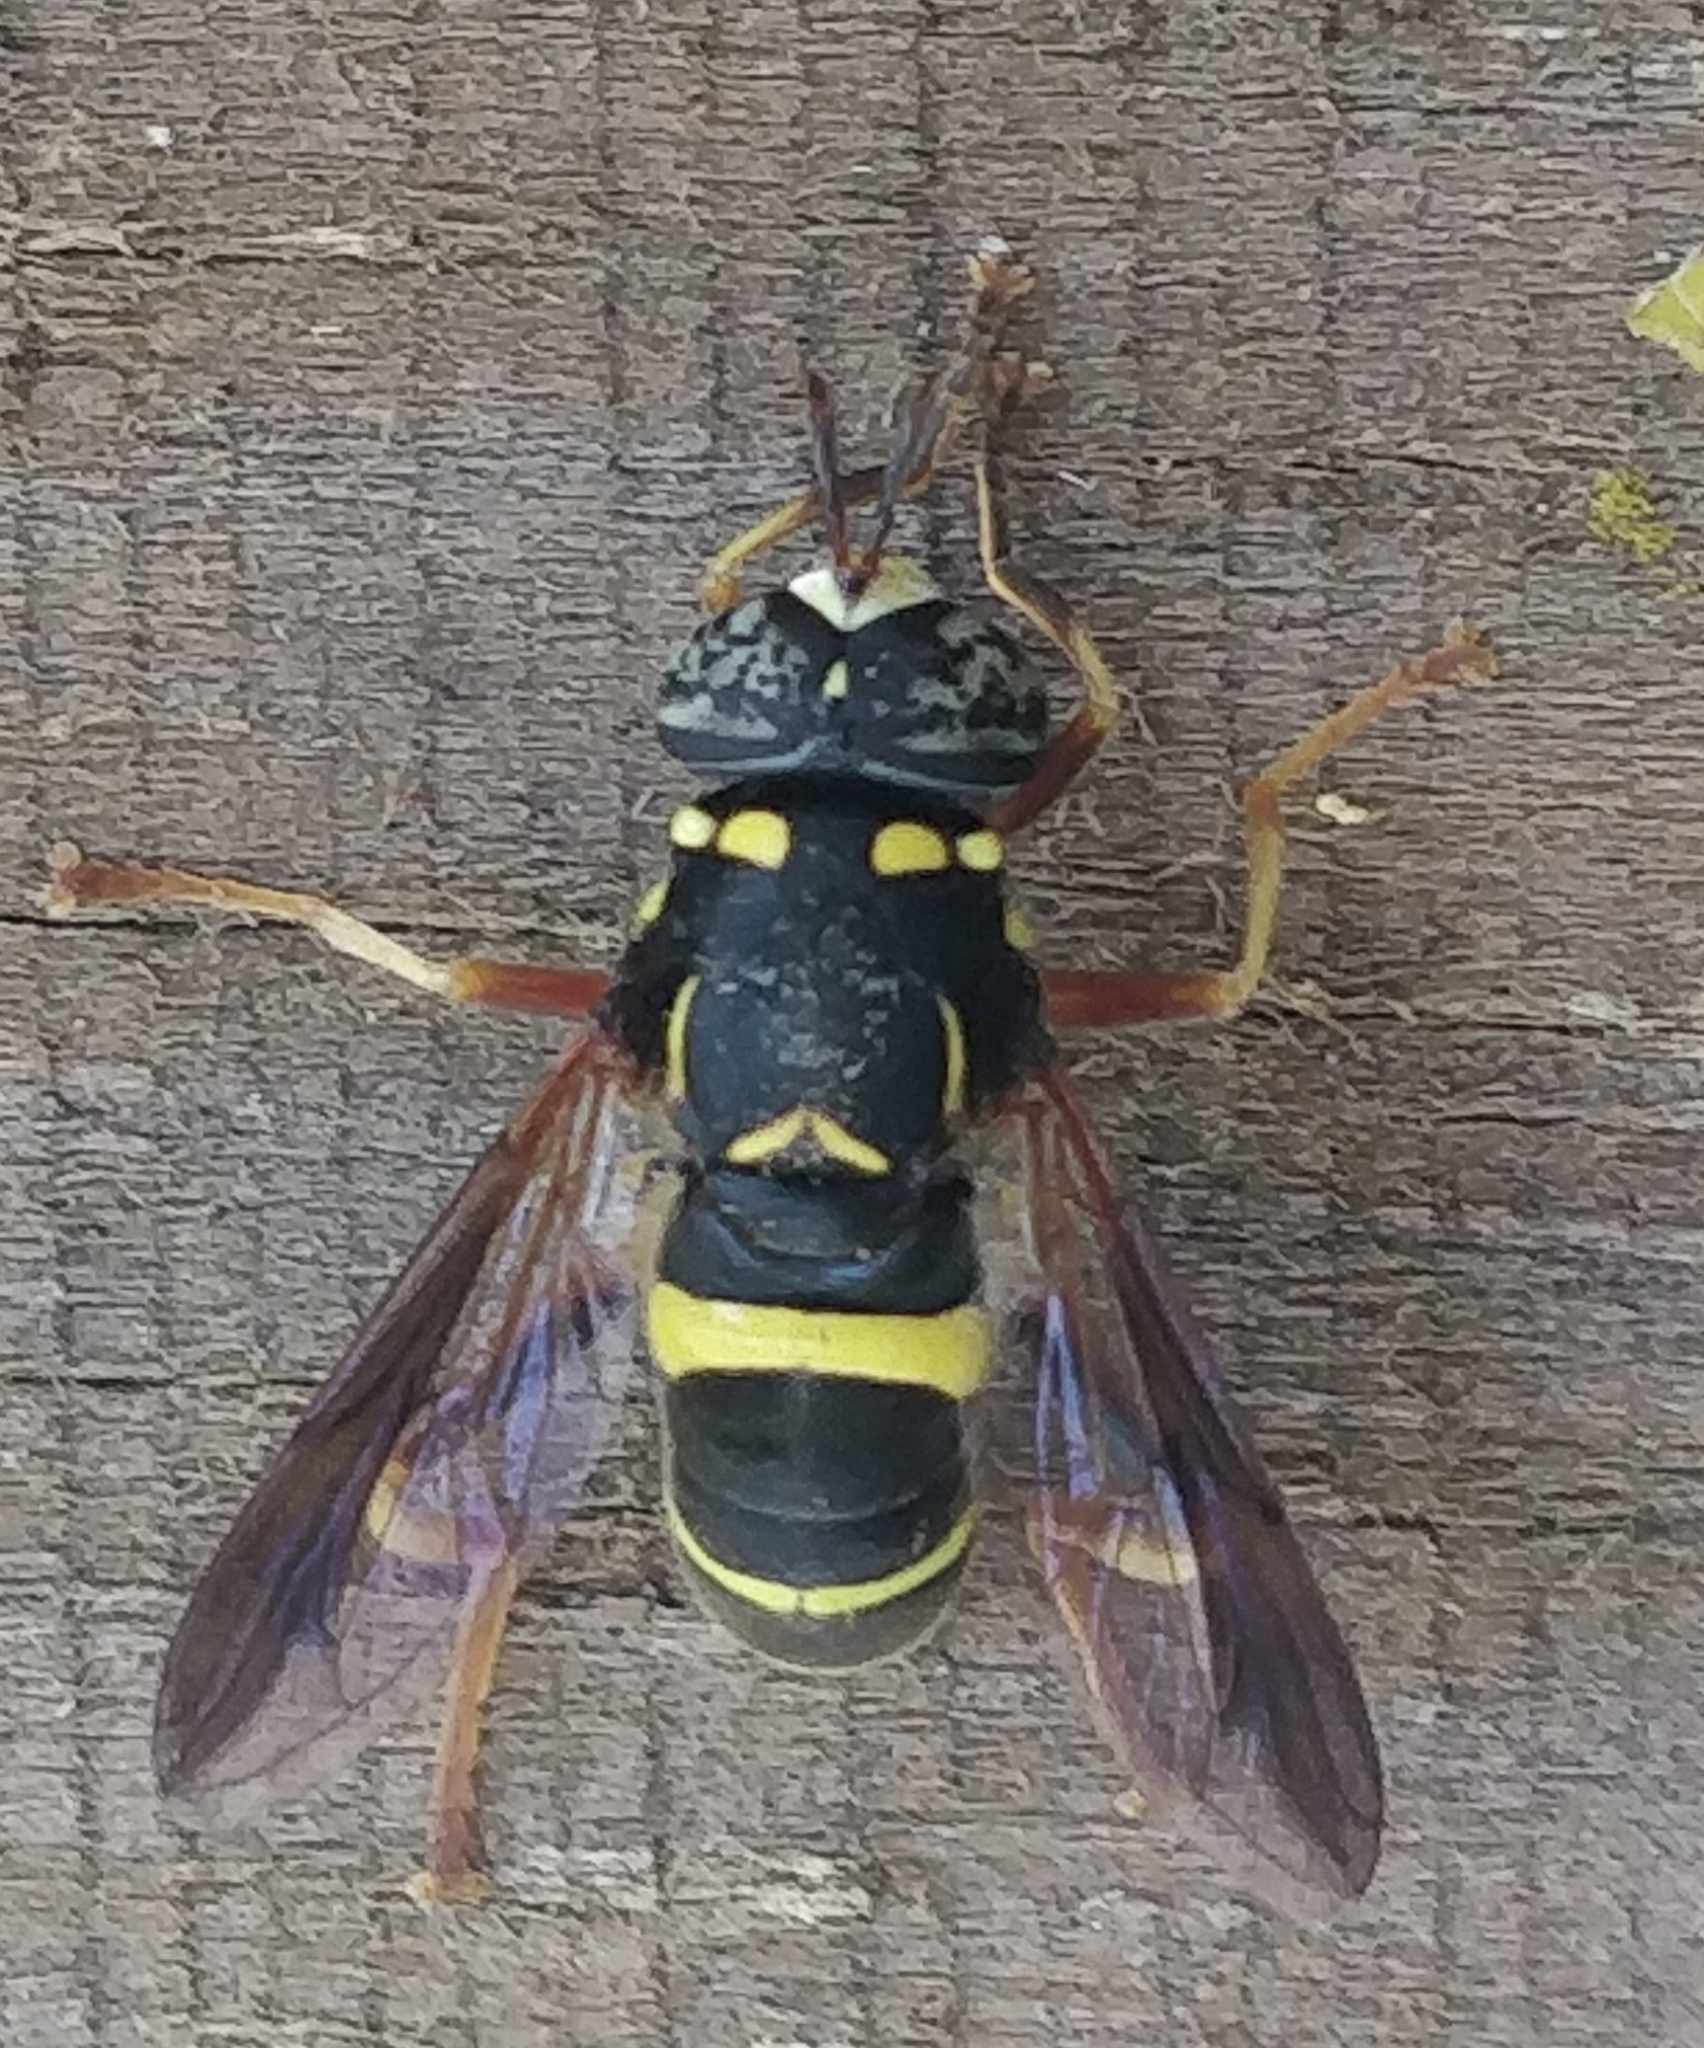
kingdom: Animalia
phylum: Arthropoda
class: Insecta
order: Diptera
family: Syrphidae
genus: Spilomyia
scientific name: Spilomyia sayi
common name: Four-lined hornet fly
